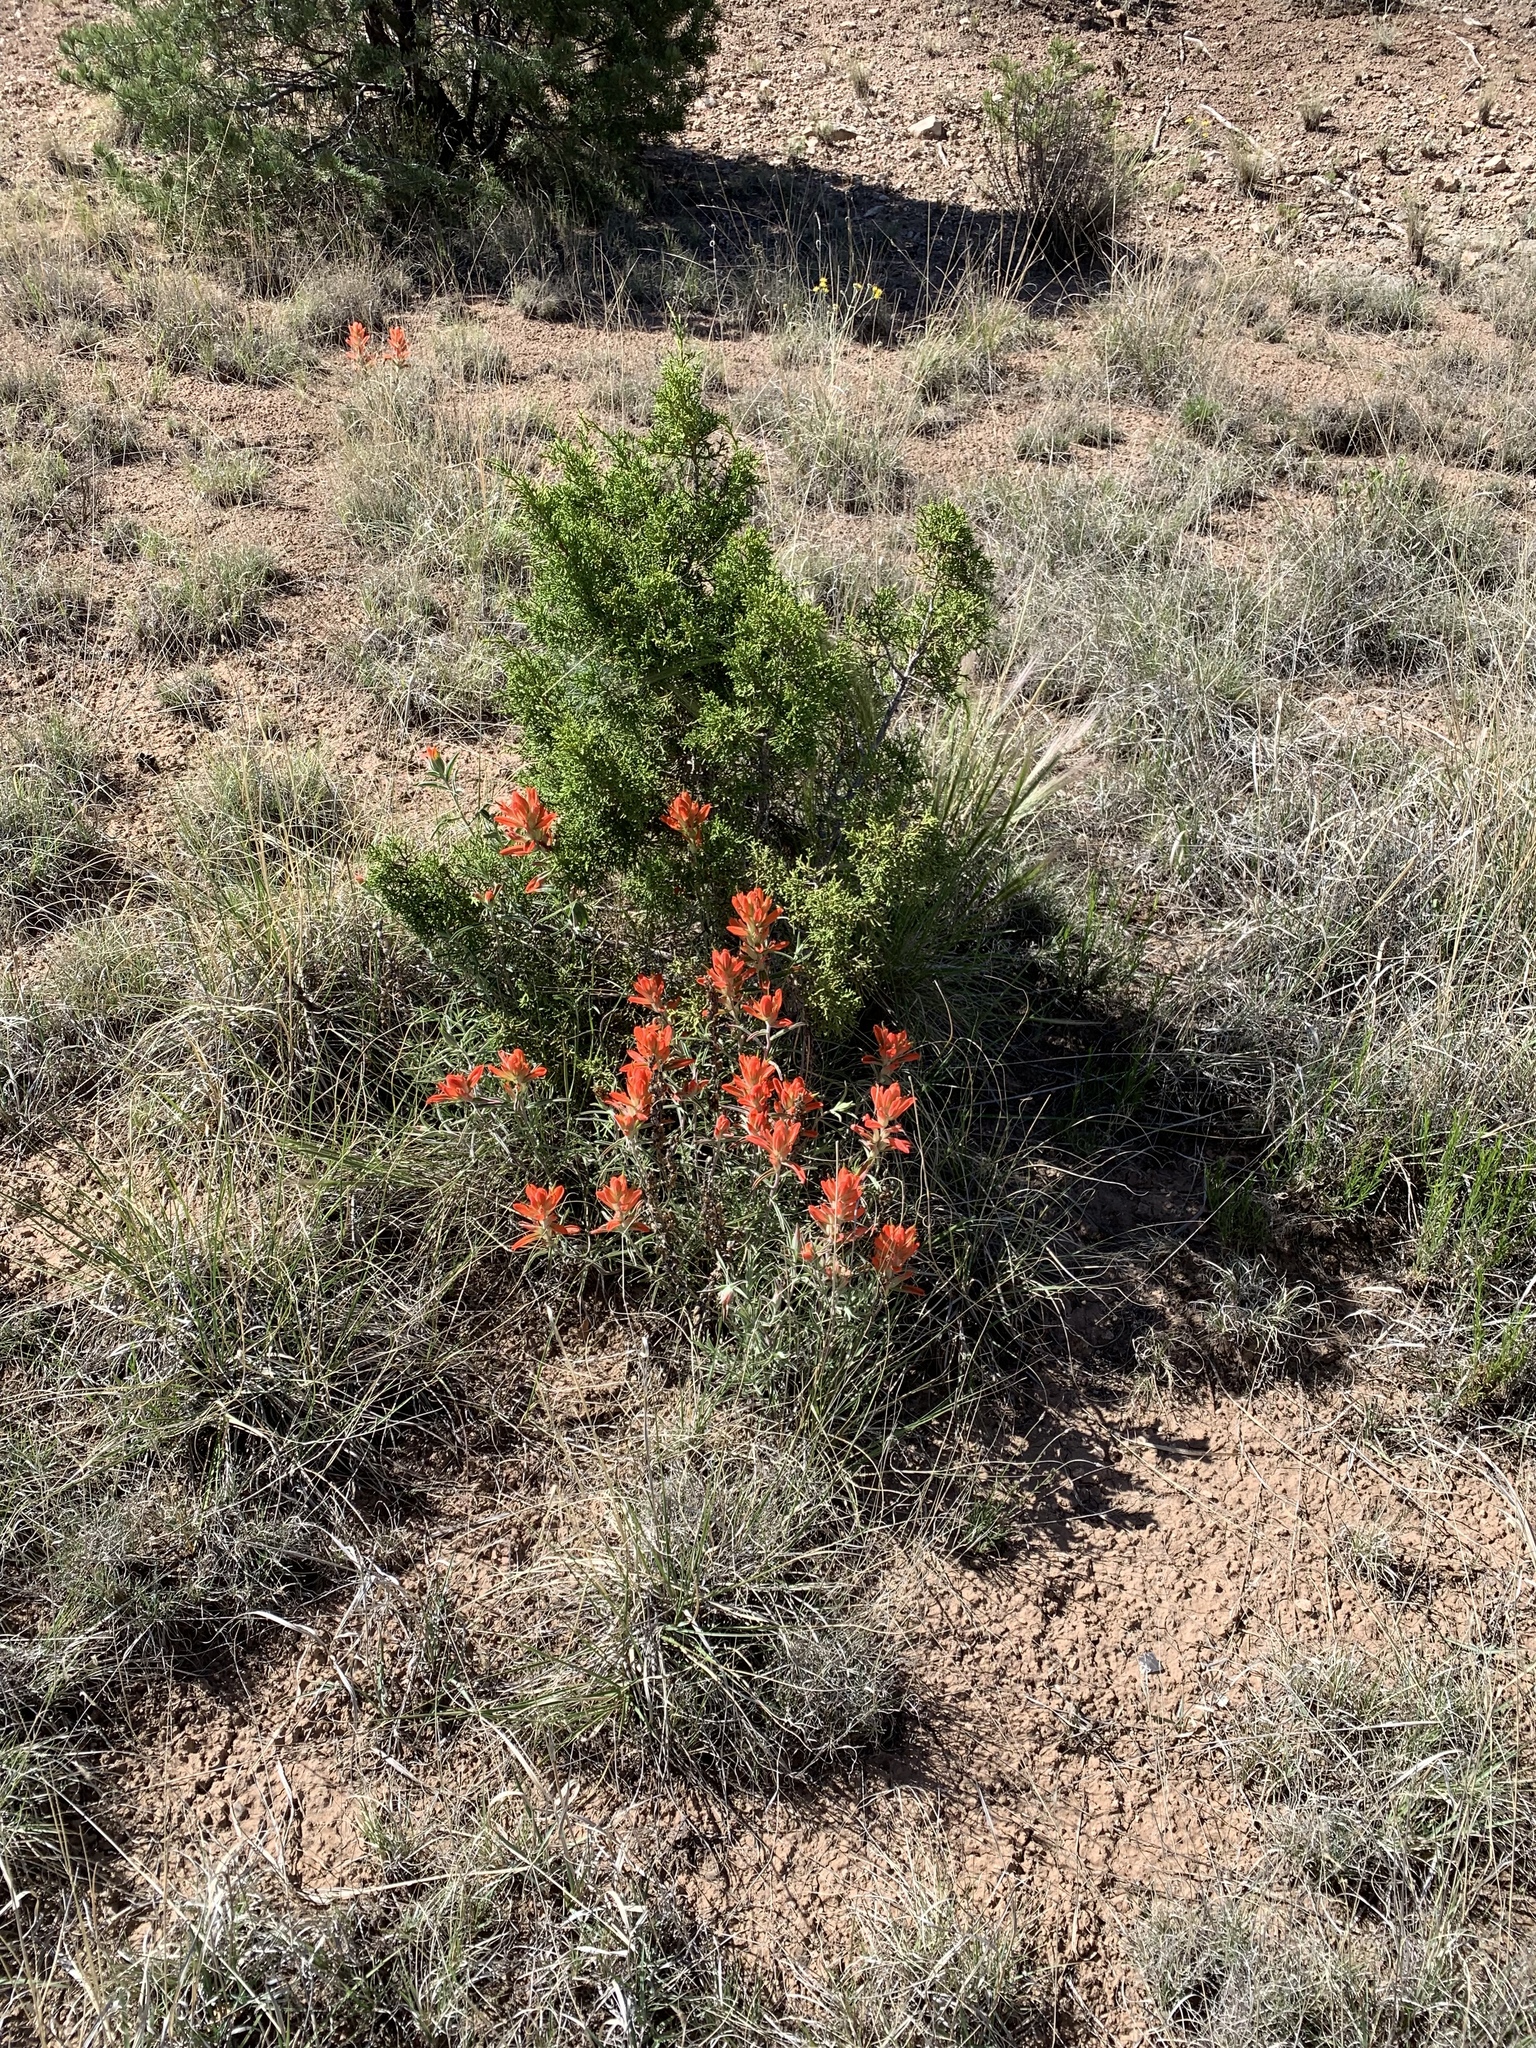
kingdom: Plantae
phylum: Tracheophyta
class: Magnoliopsida
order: Lamiales
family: Orobanchaceae
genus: Castilleja
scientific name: Castilleja integra
